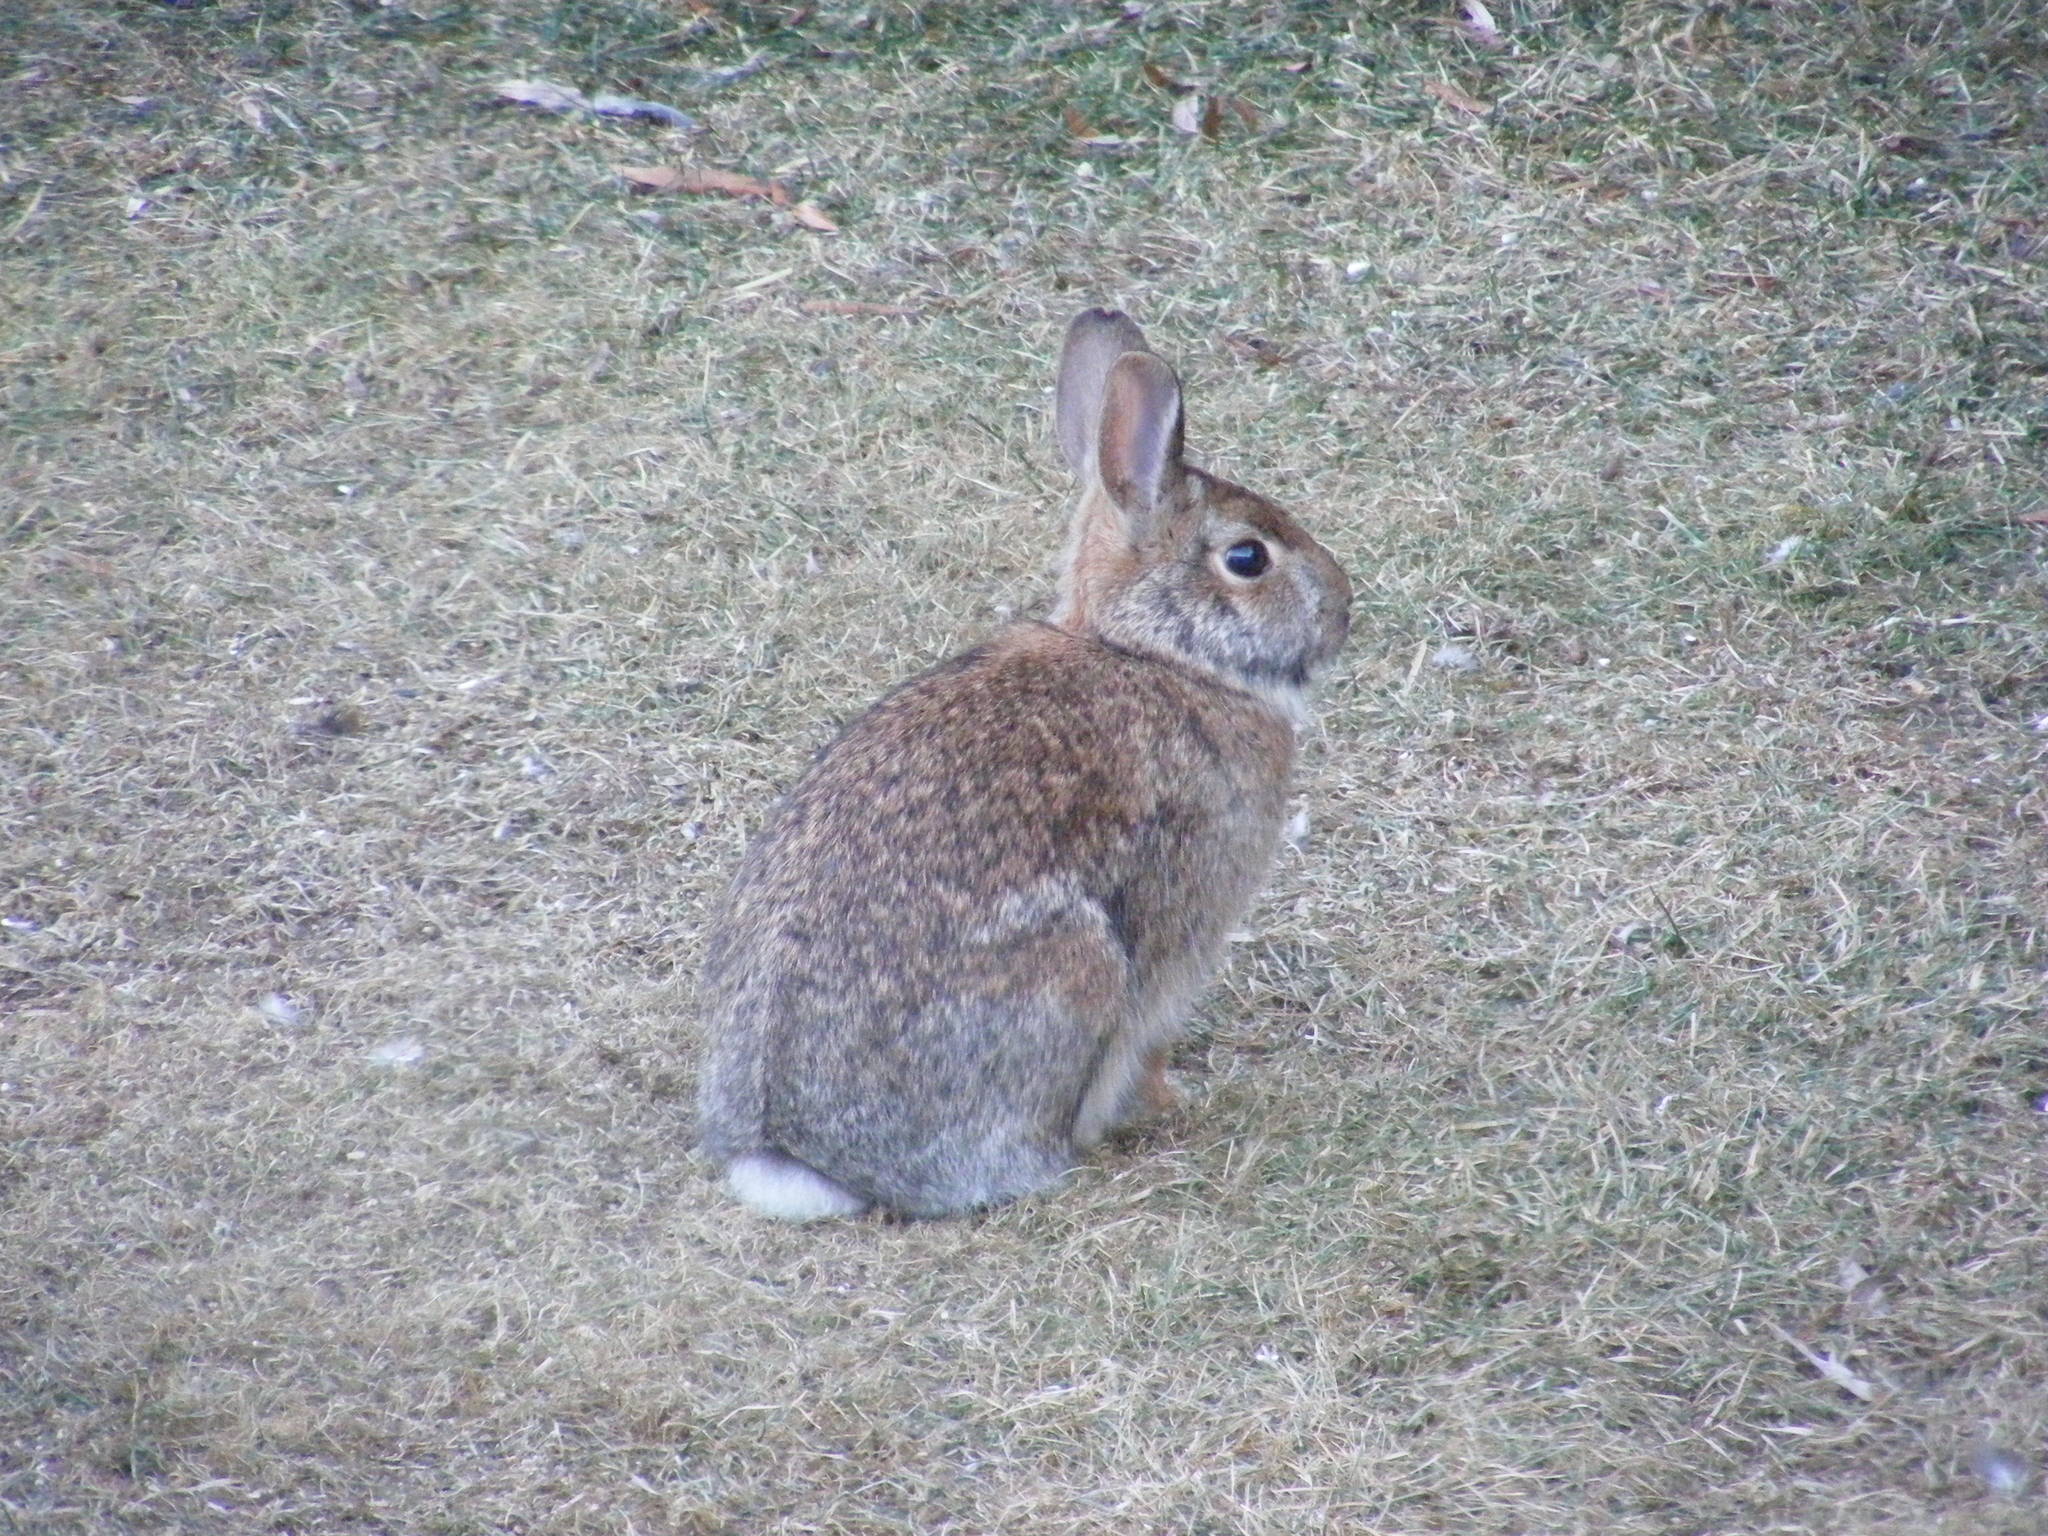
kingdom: Animalia
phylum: Chordata
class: Mammalia
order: Lagomorpha
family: Leporidae
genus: Sylvilagus
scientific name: Sylvilagus floridanus
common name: Eastern cottontail
